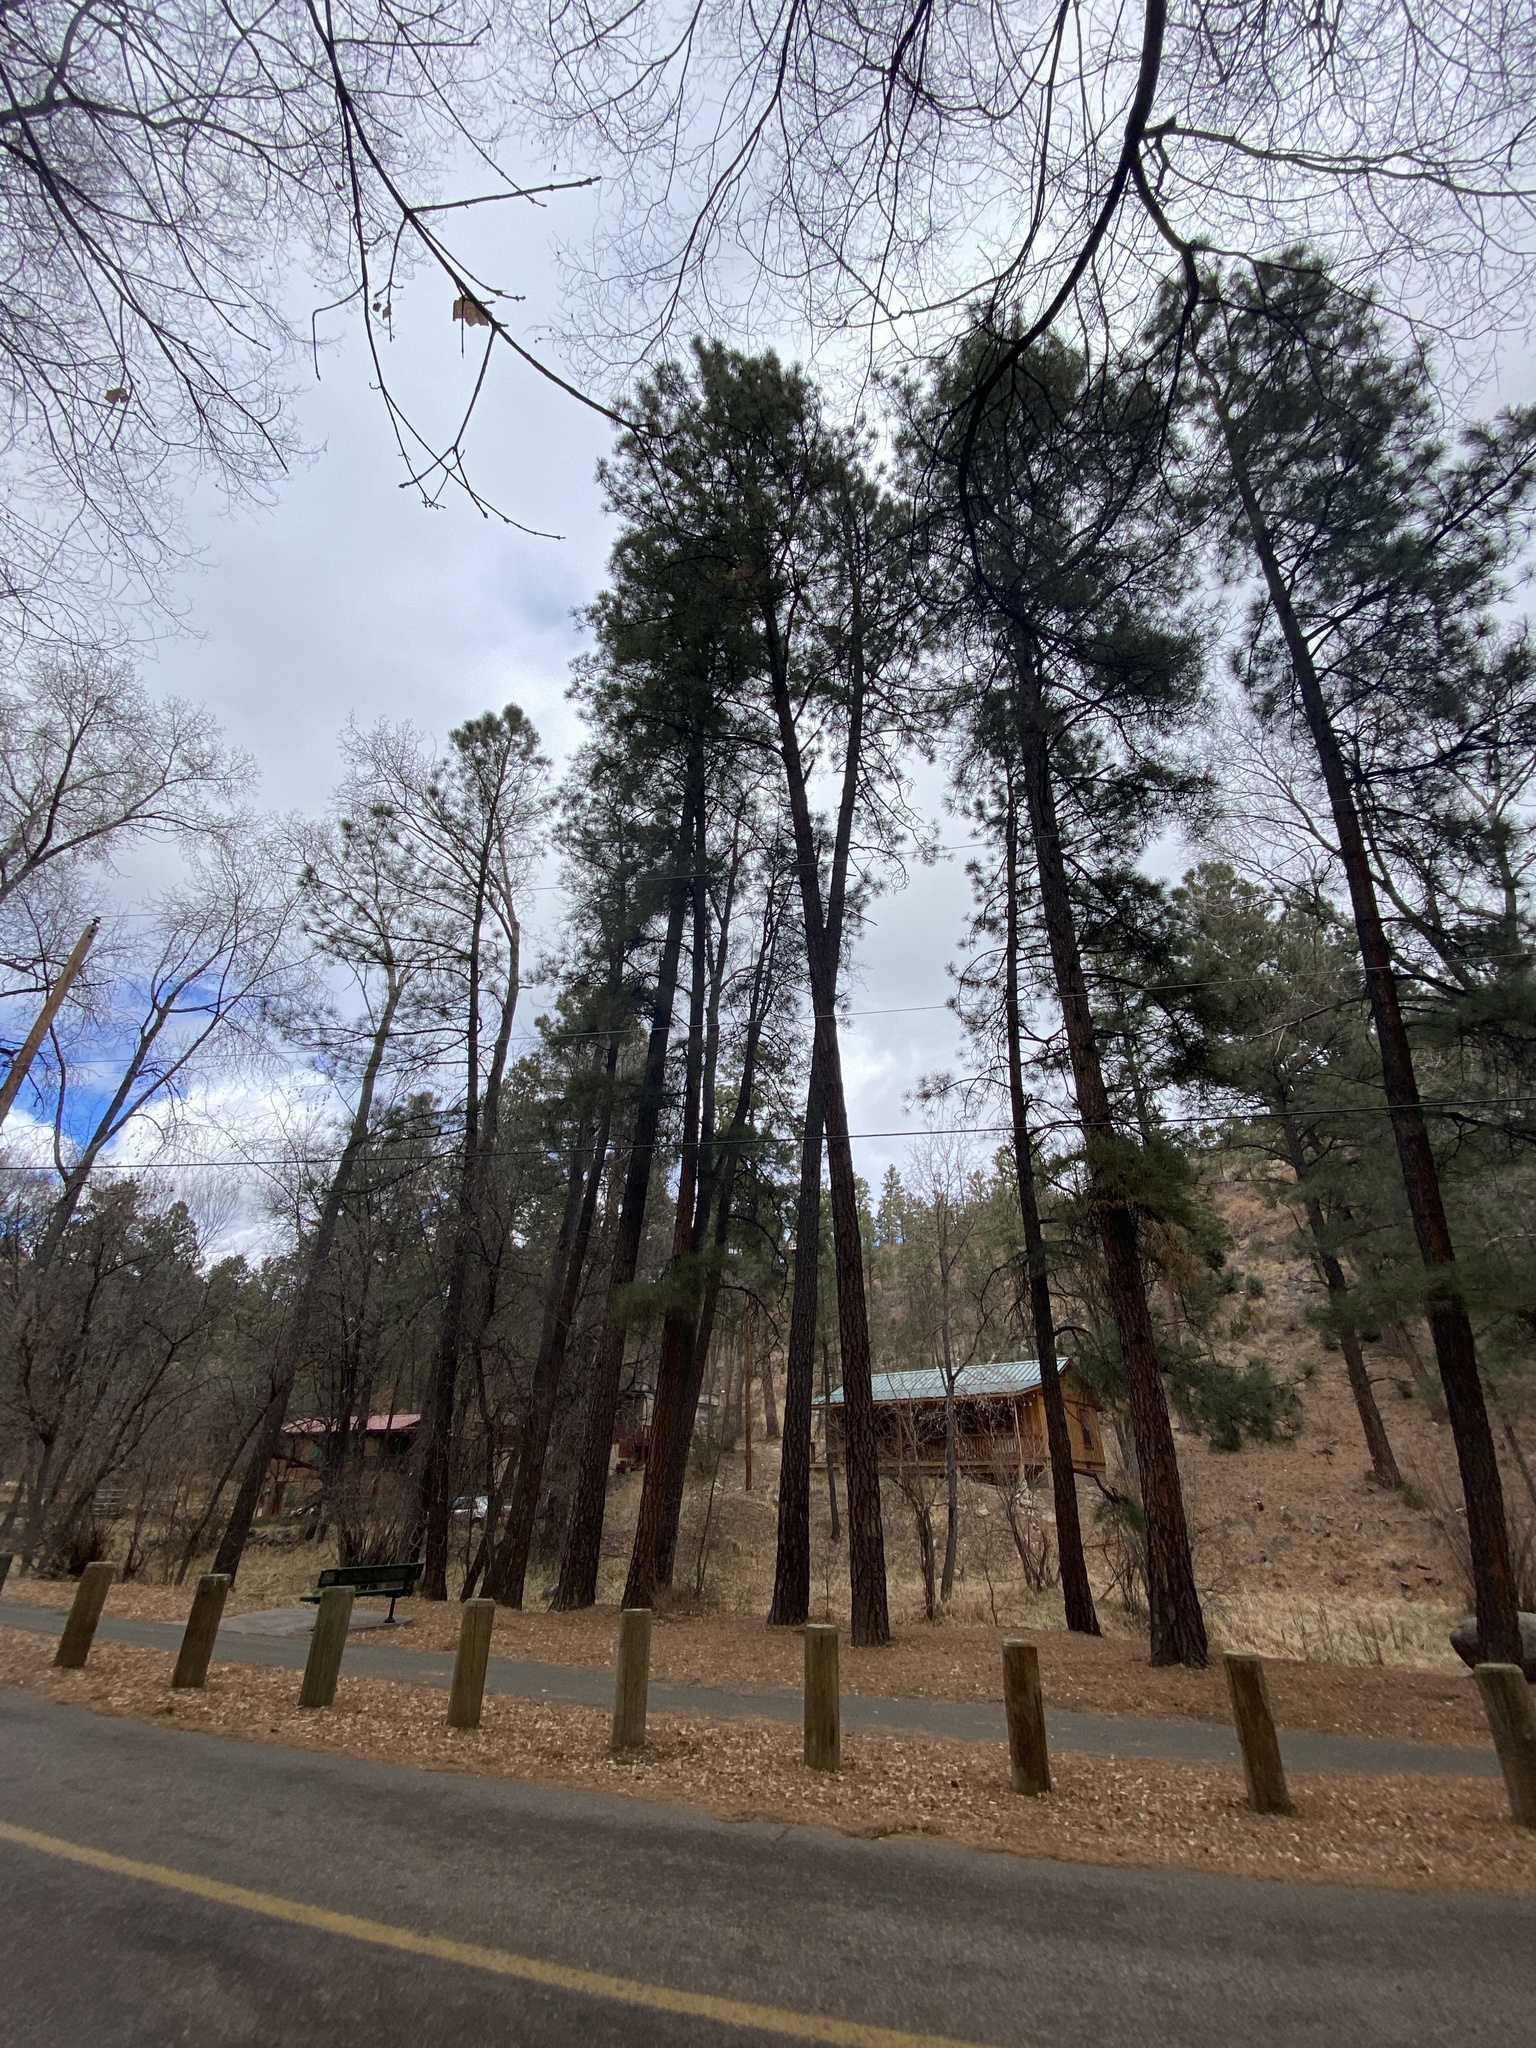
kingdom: Plantae
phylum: Tracheophyta
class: Pinopsida
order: Pinales
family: Pinaceae
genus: Pinus
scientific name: Pinus ponderosa
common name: Western yellow-pine
